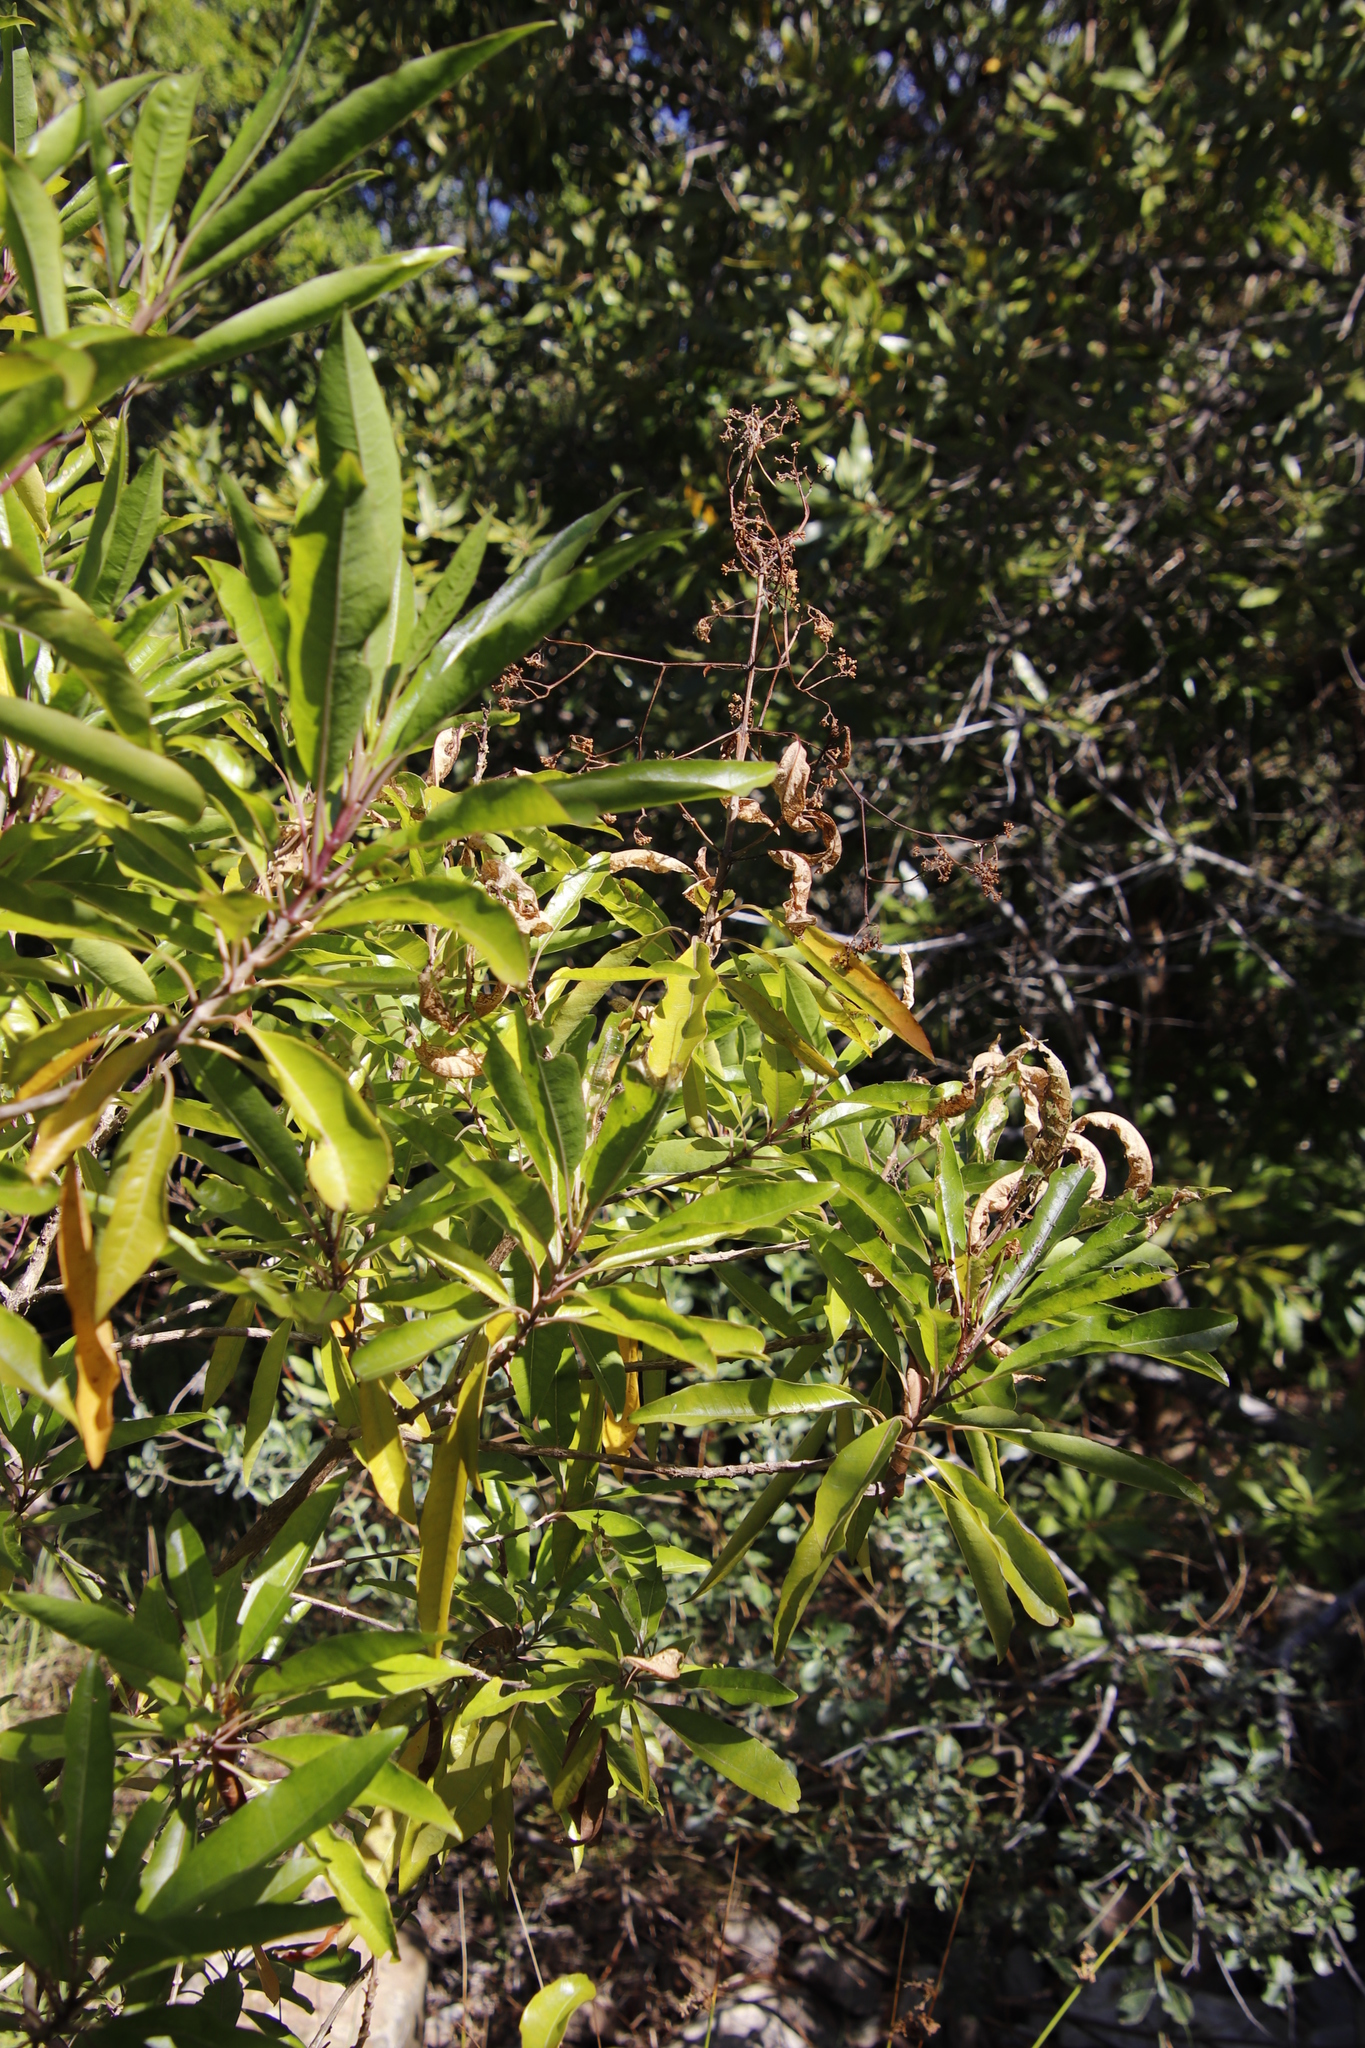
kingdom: Plantae
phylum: Tracheophyta
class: Magnoliopsida
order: Lamiales
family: Stilbaceae
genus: Nuxia
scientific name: Nuxia floribunda
